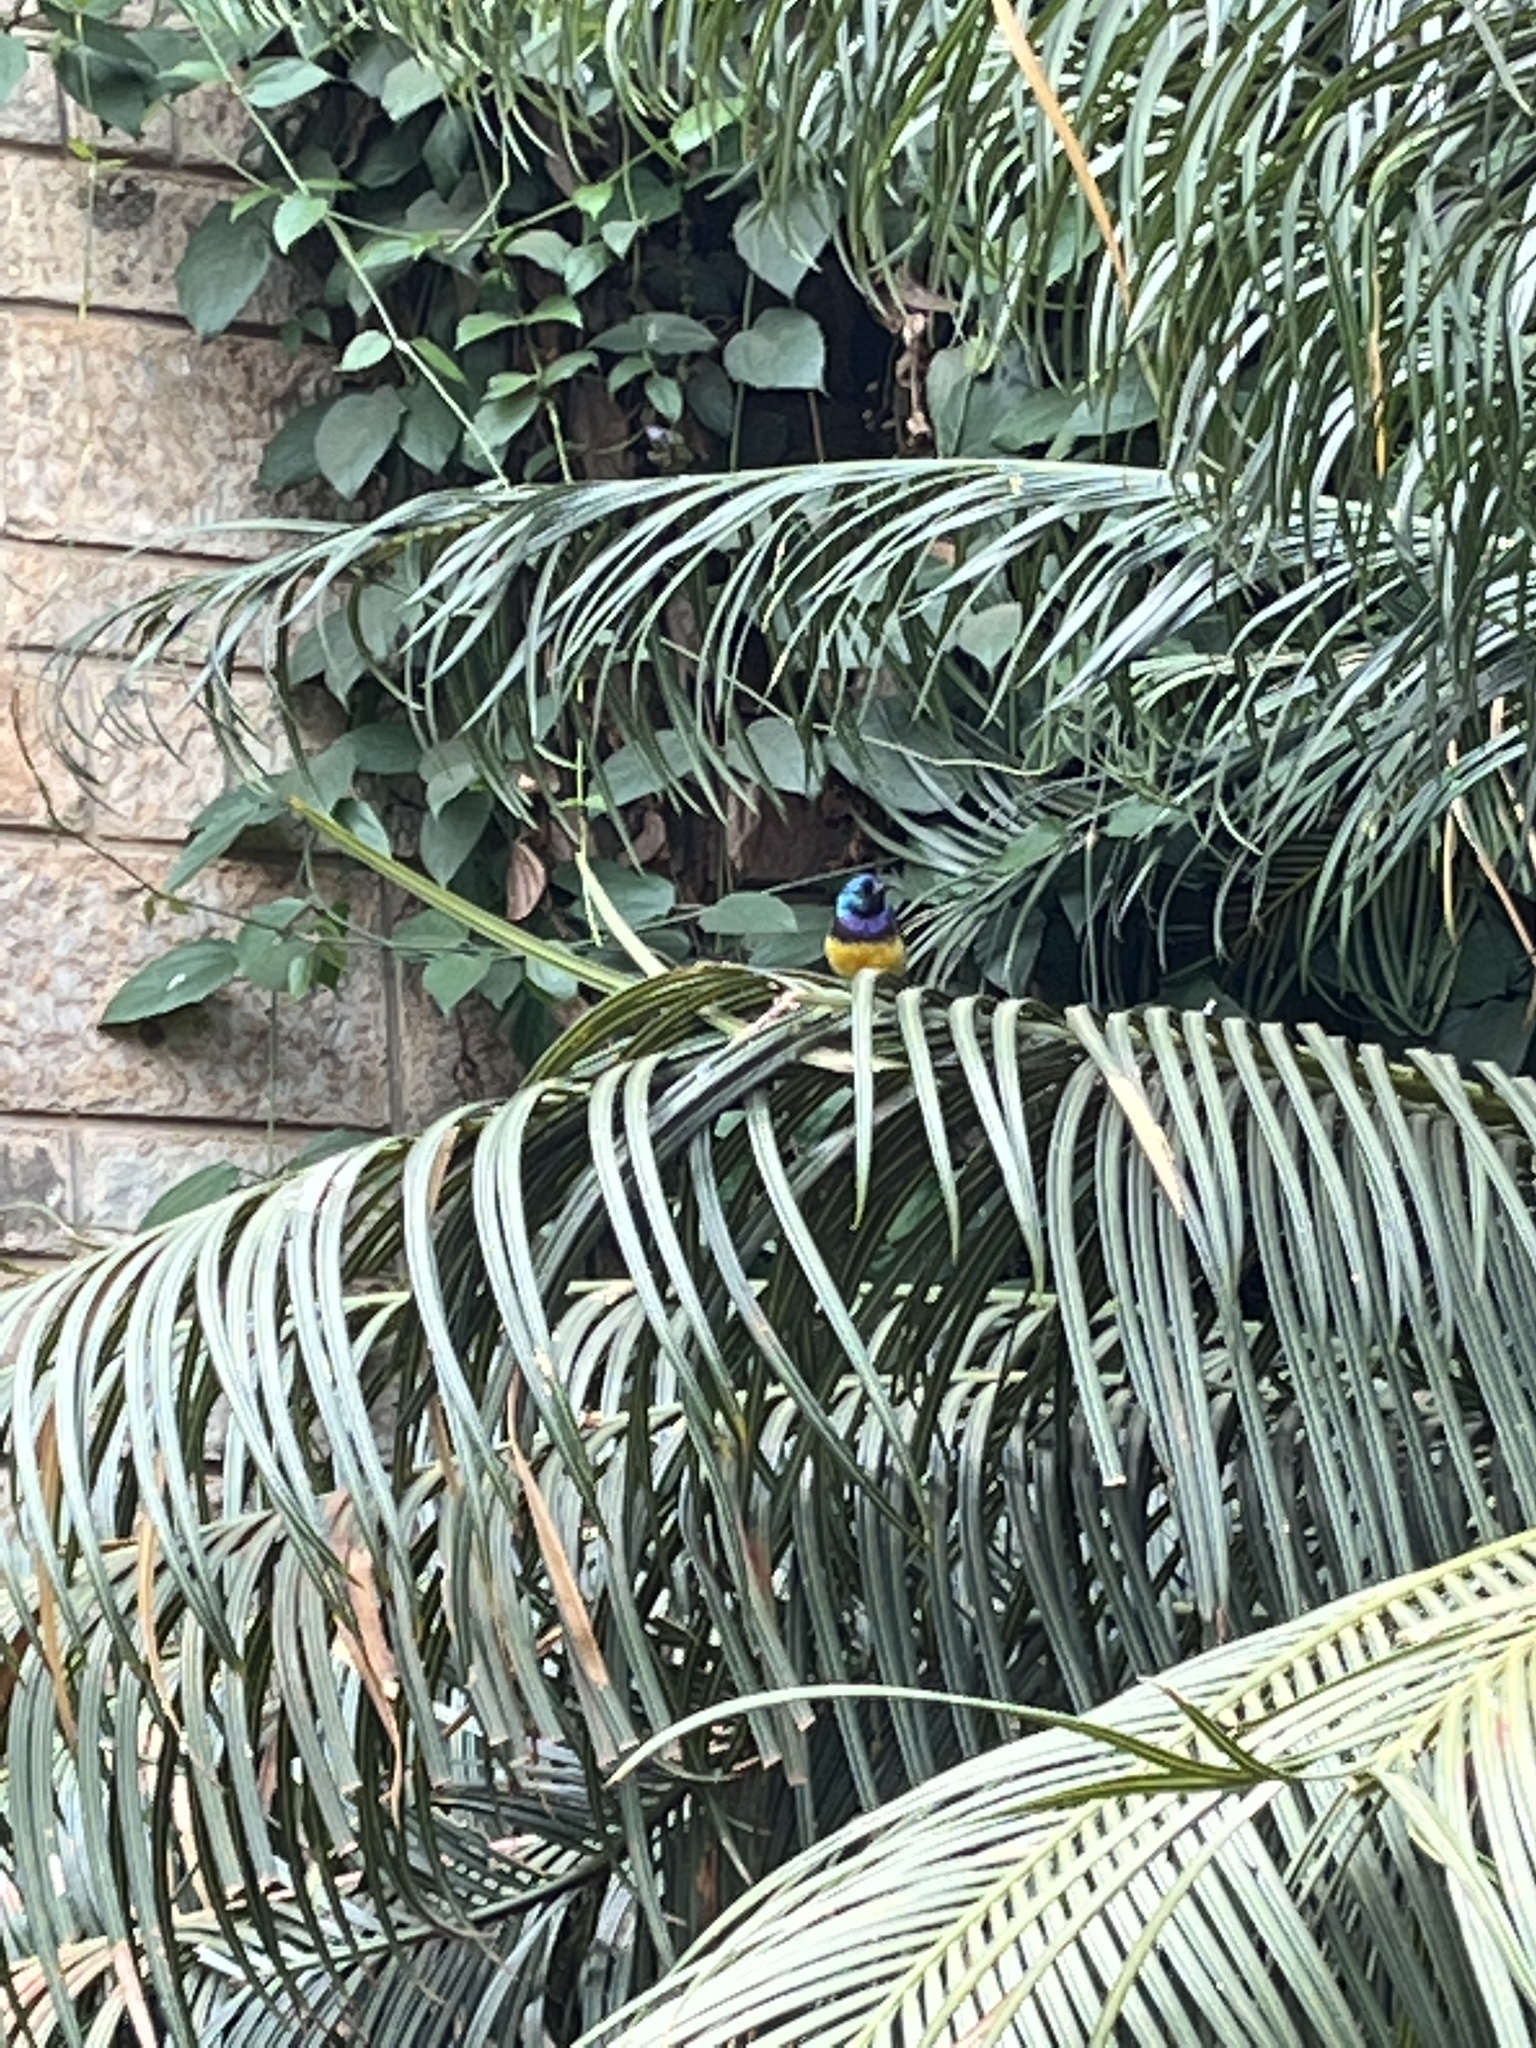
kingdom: Animalia
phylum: Chordata
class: Aves
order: Passeriformes
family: Nectariniidae
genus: Cinnyris
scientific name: Cinnyris venustus
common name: Variable sunbird
